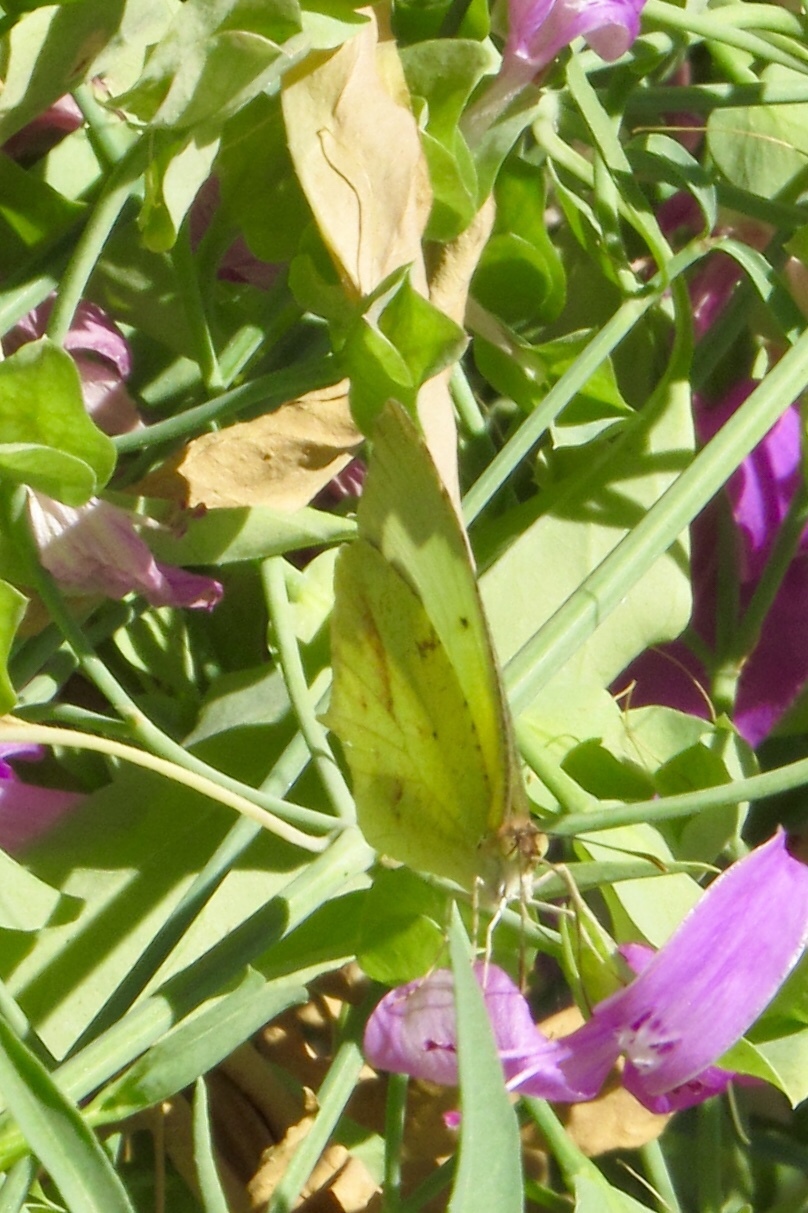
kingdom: Animalia
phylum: Arthropoda
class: Insecta
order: Lepidoptera
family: Pieridae
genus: Abaeis
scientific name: Abaeis mexicana
